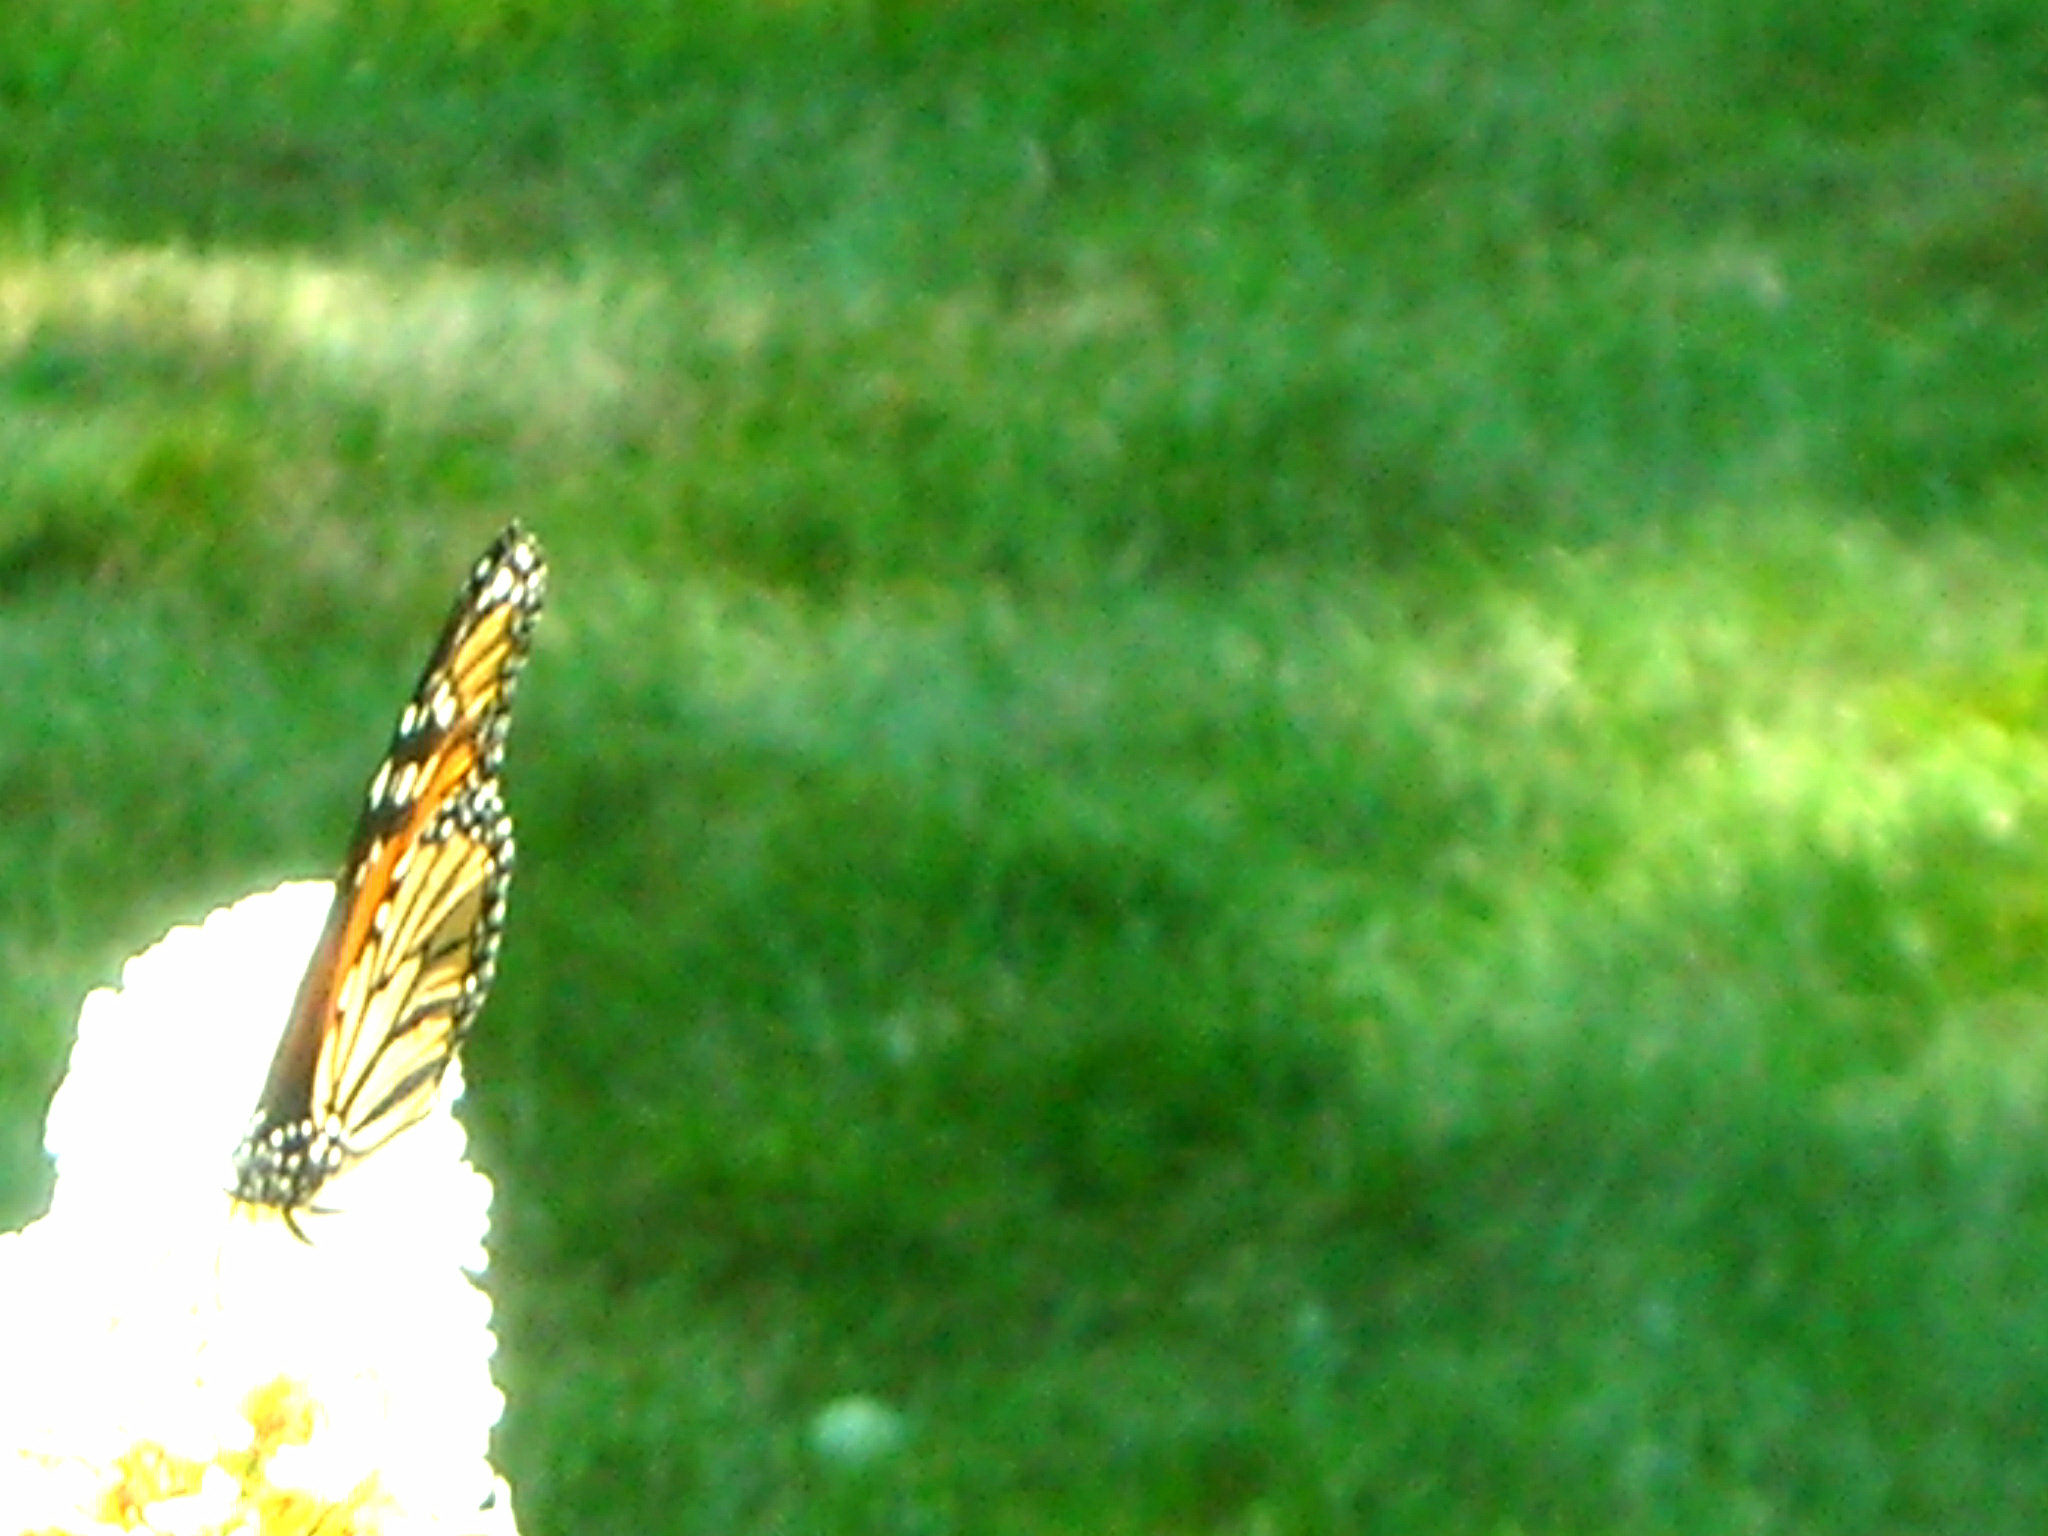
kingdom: Animalia
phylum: Arthropoda
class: Insecta
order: Lepidoptera
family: Nymphalidae
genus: Danaus
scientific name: Danaus plexippus
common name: Monarch
